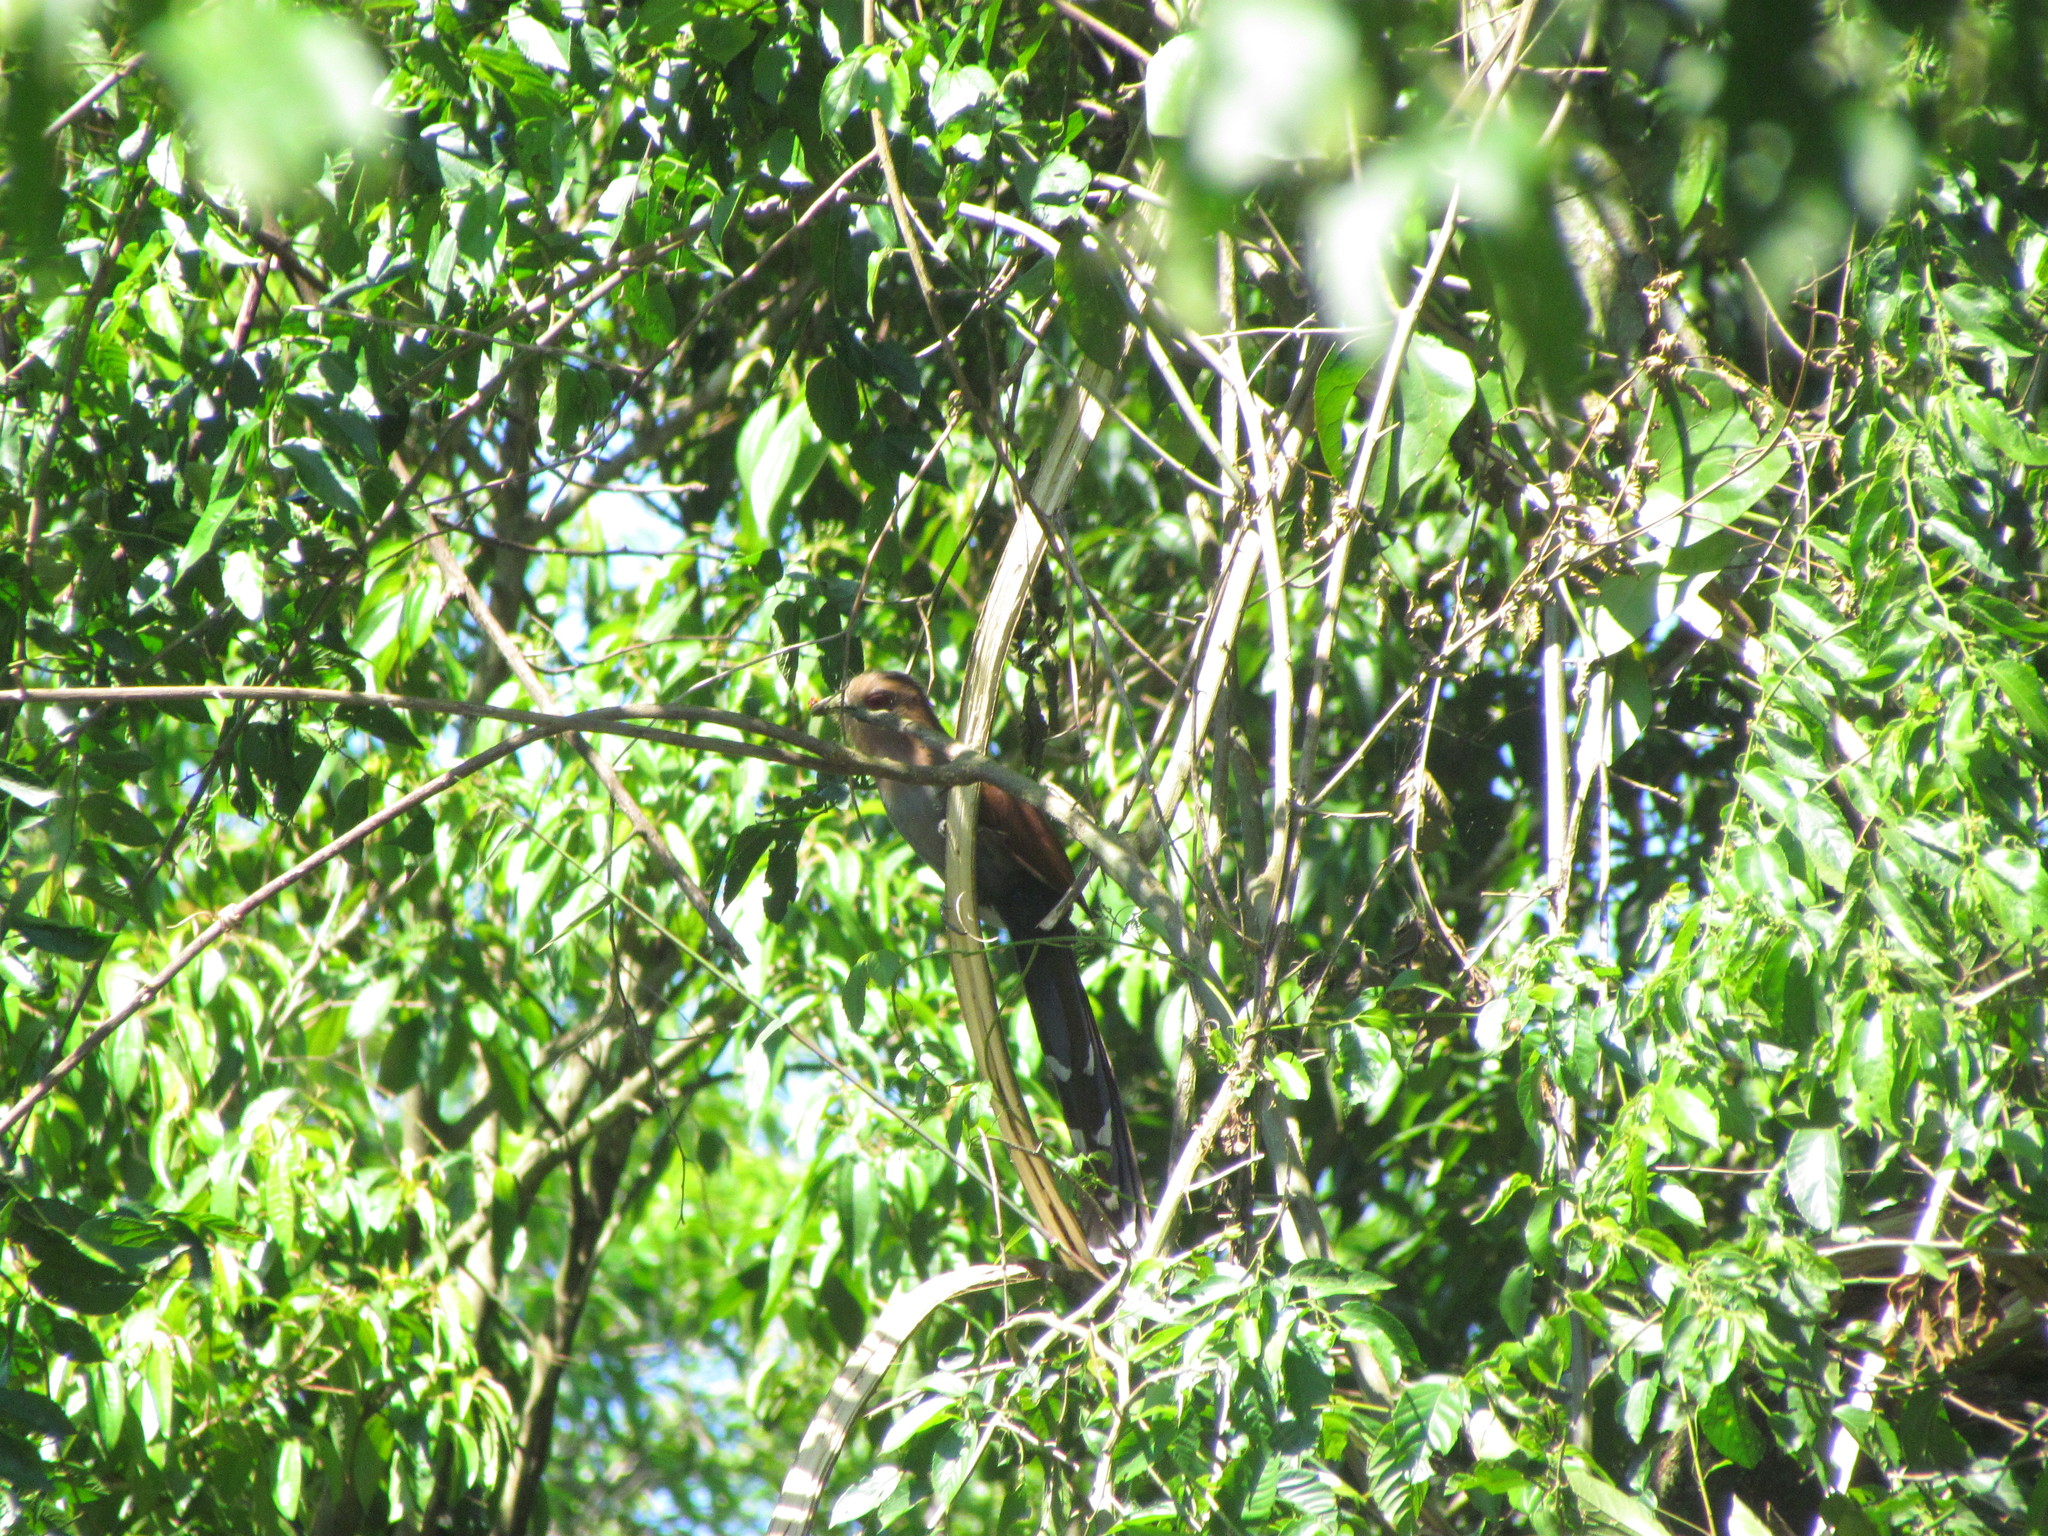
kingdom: Animalia
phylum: Chordata
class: Aves
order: Cuculiformes
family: Cuculidae
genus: Piaya
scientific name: Piaya cayana
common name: Squirrel cuckoo
